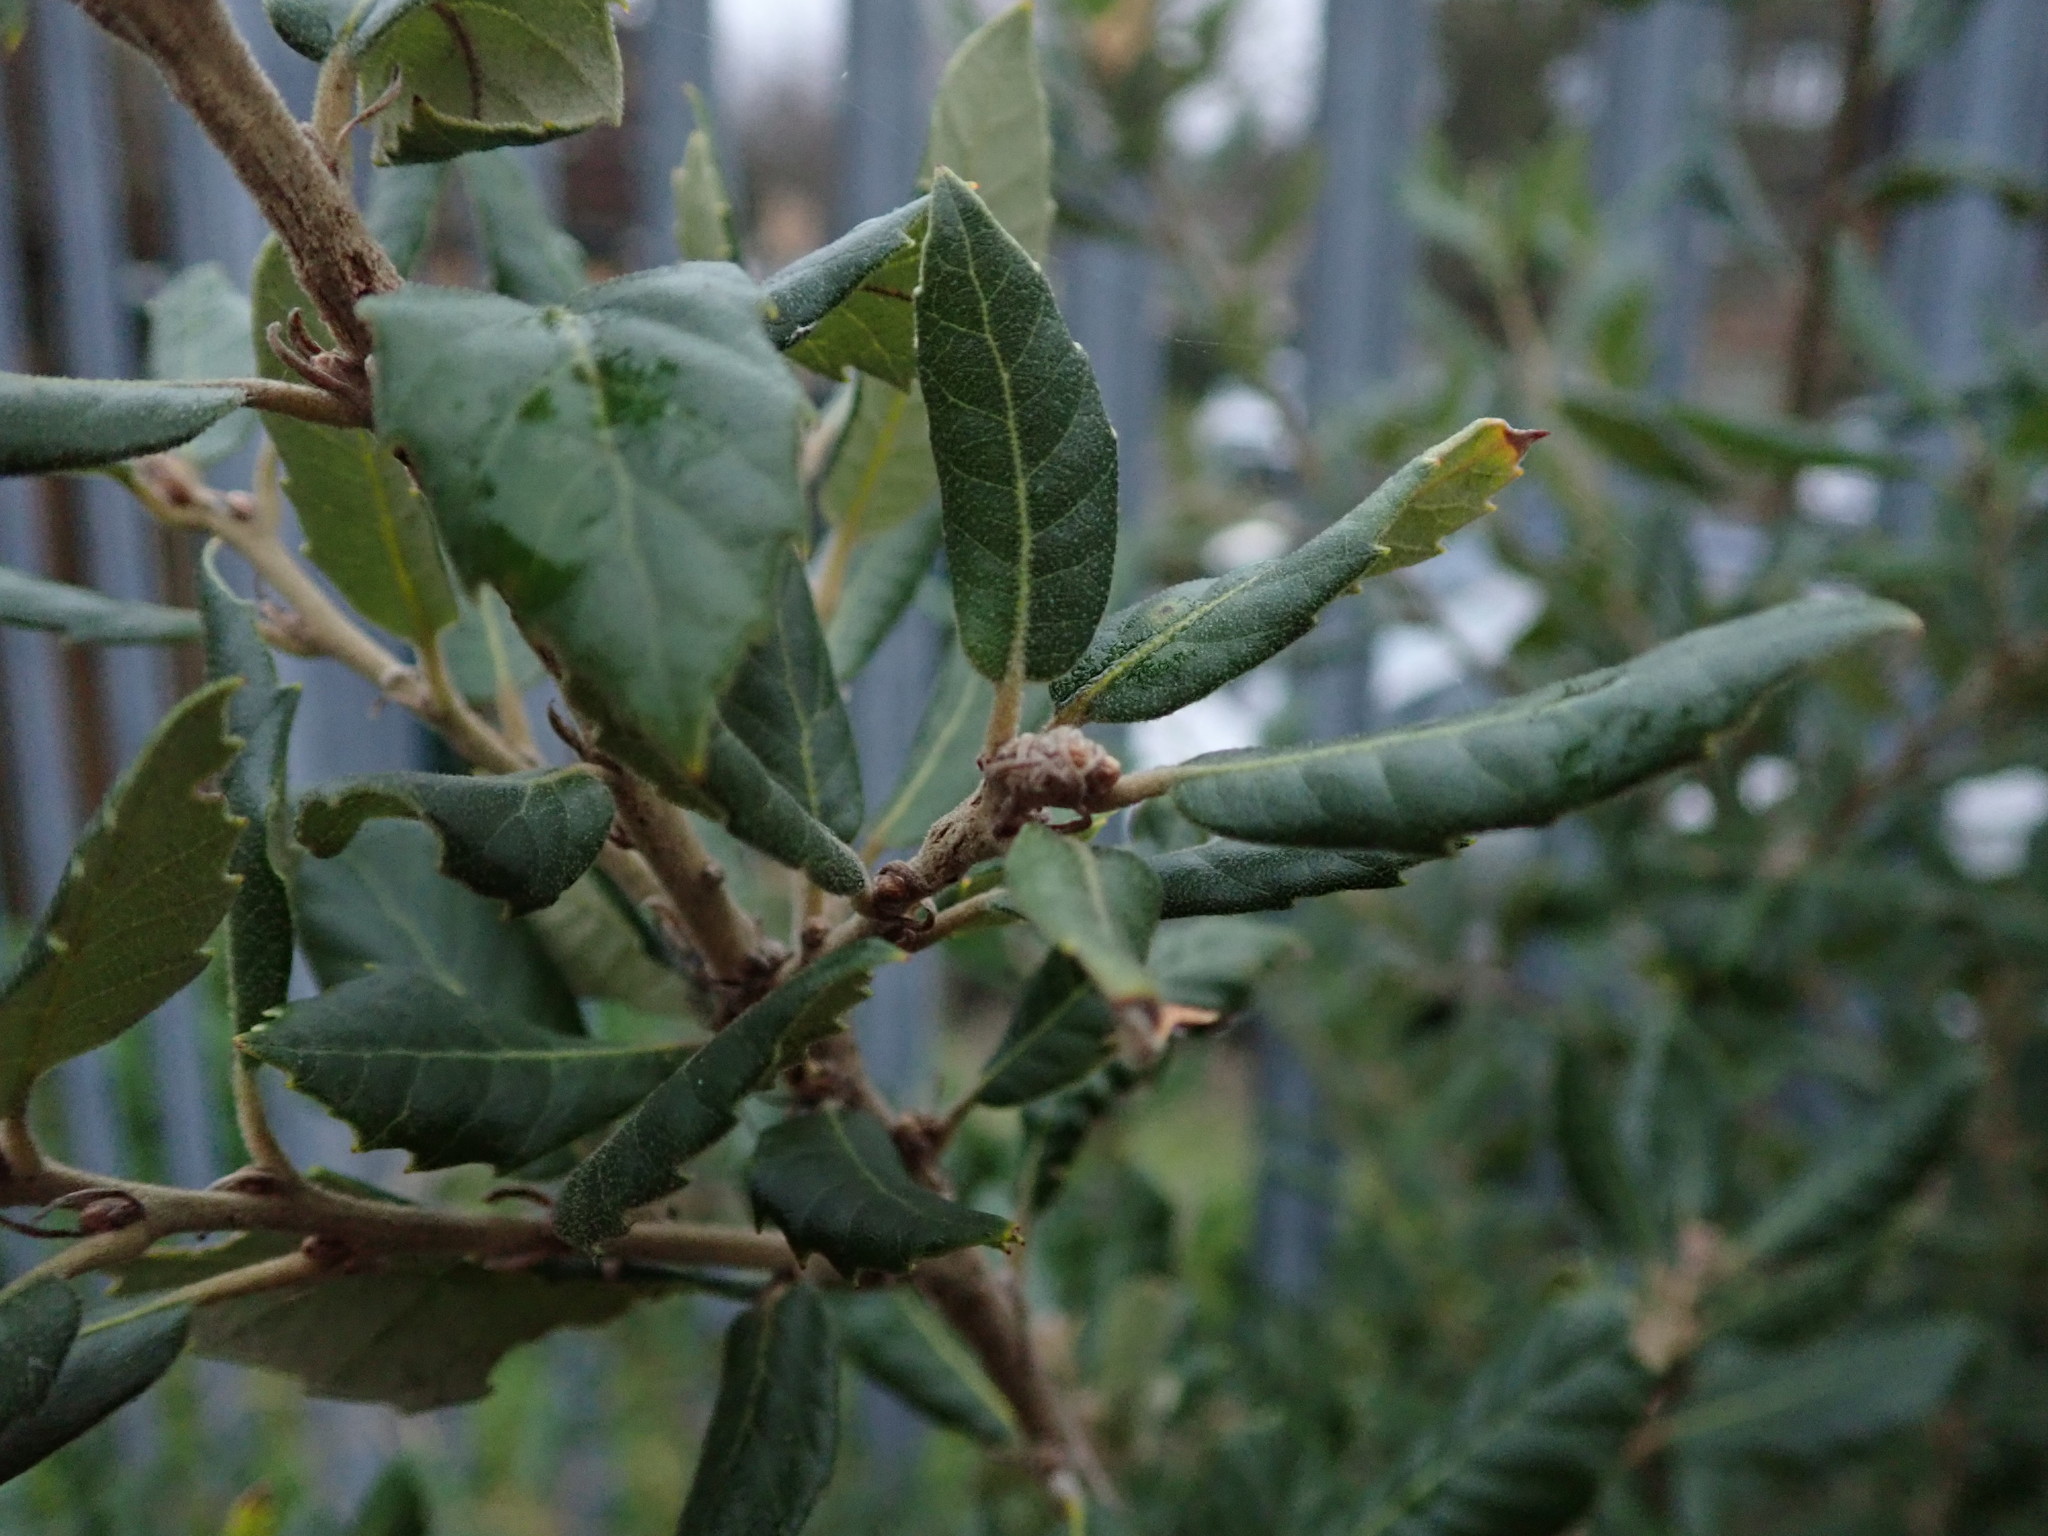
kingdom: Plantae
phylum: Tracheophyta
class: Magnoliopsida
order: Fagales
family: Fagaceae
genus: Quercus
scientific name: Quercus ilex
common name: Evergreen oak
